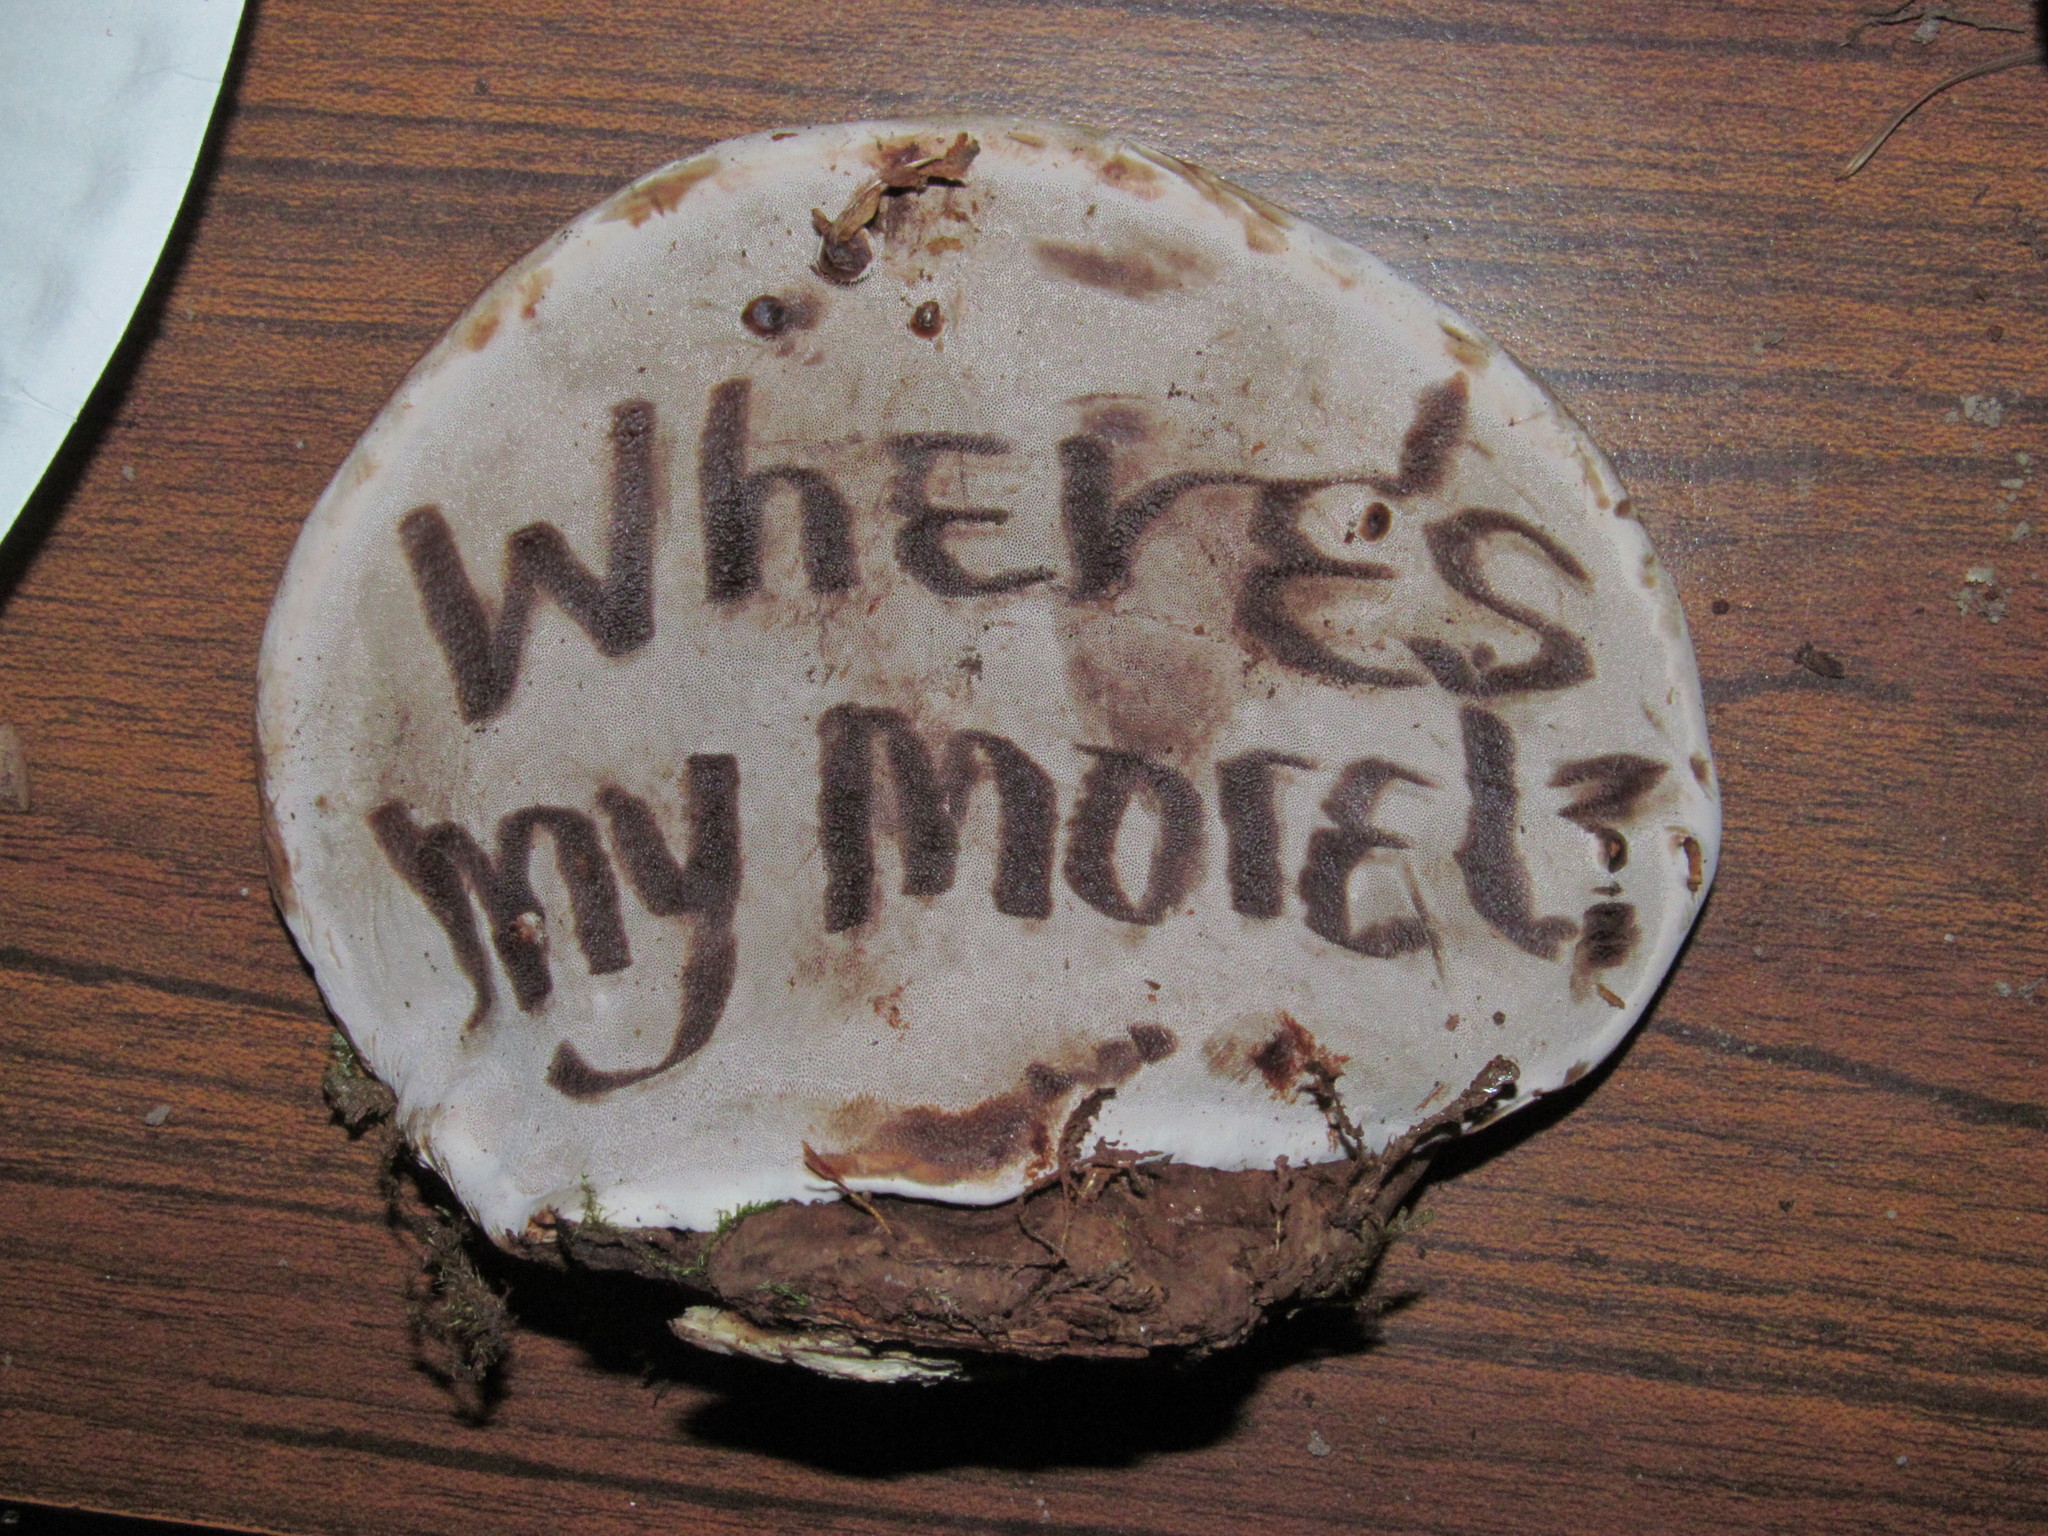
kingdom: Fungi
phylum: Basidiomycota
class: Agaricomycetes
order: Polyporales
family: Polyporaceae
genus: Ganoderma
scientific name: Ganoderma applanatum
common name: Artist's bracket
